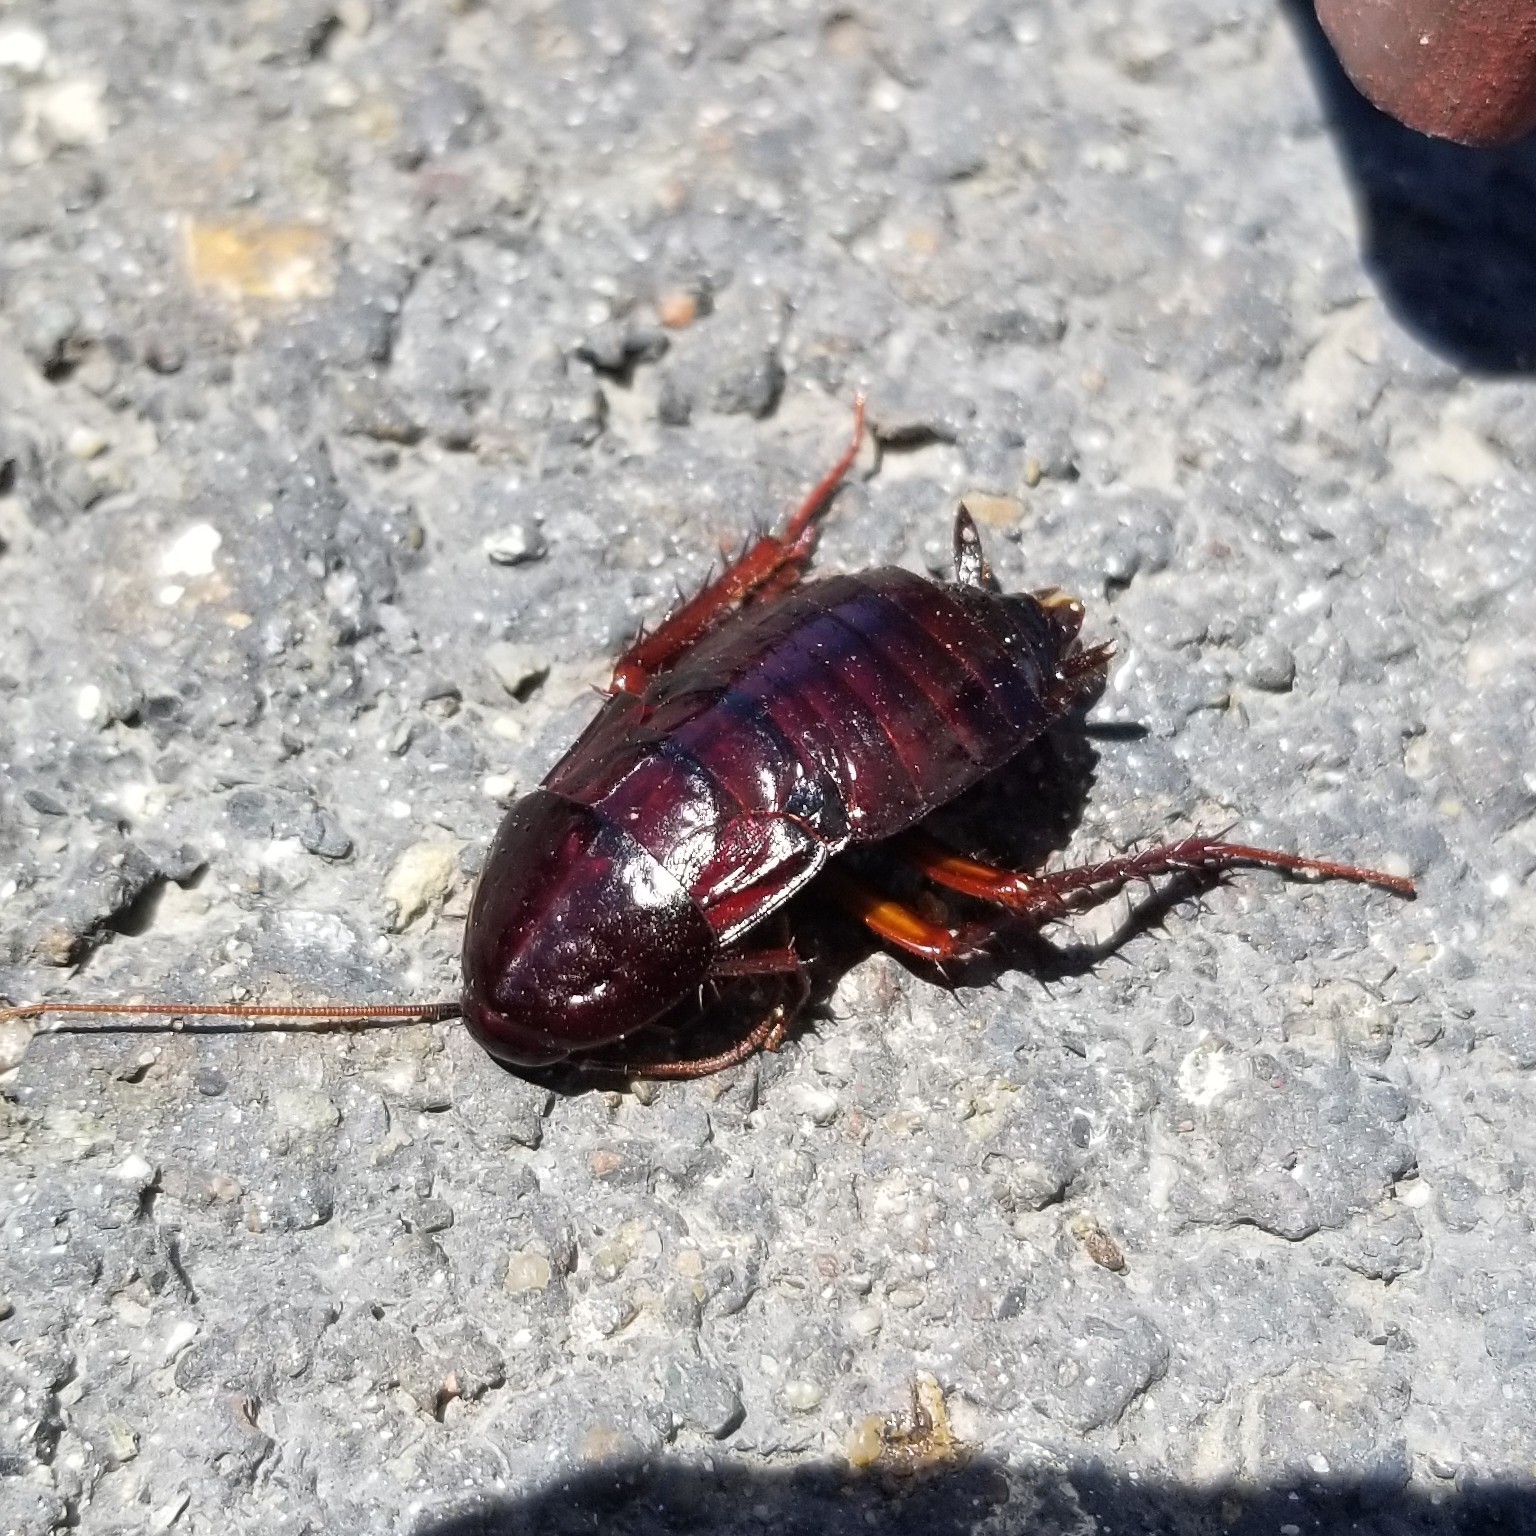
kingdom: Animalia
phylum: Arthropoda
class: Insecta
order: Blattodea
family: Blattidae
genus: Blatta
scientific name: Blatta orientalis
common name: Oriental cockroach
